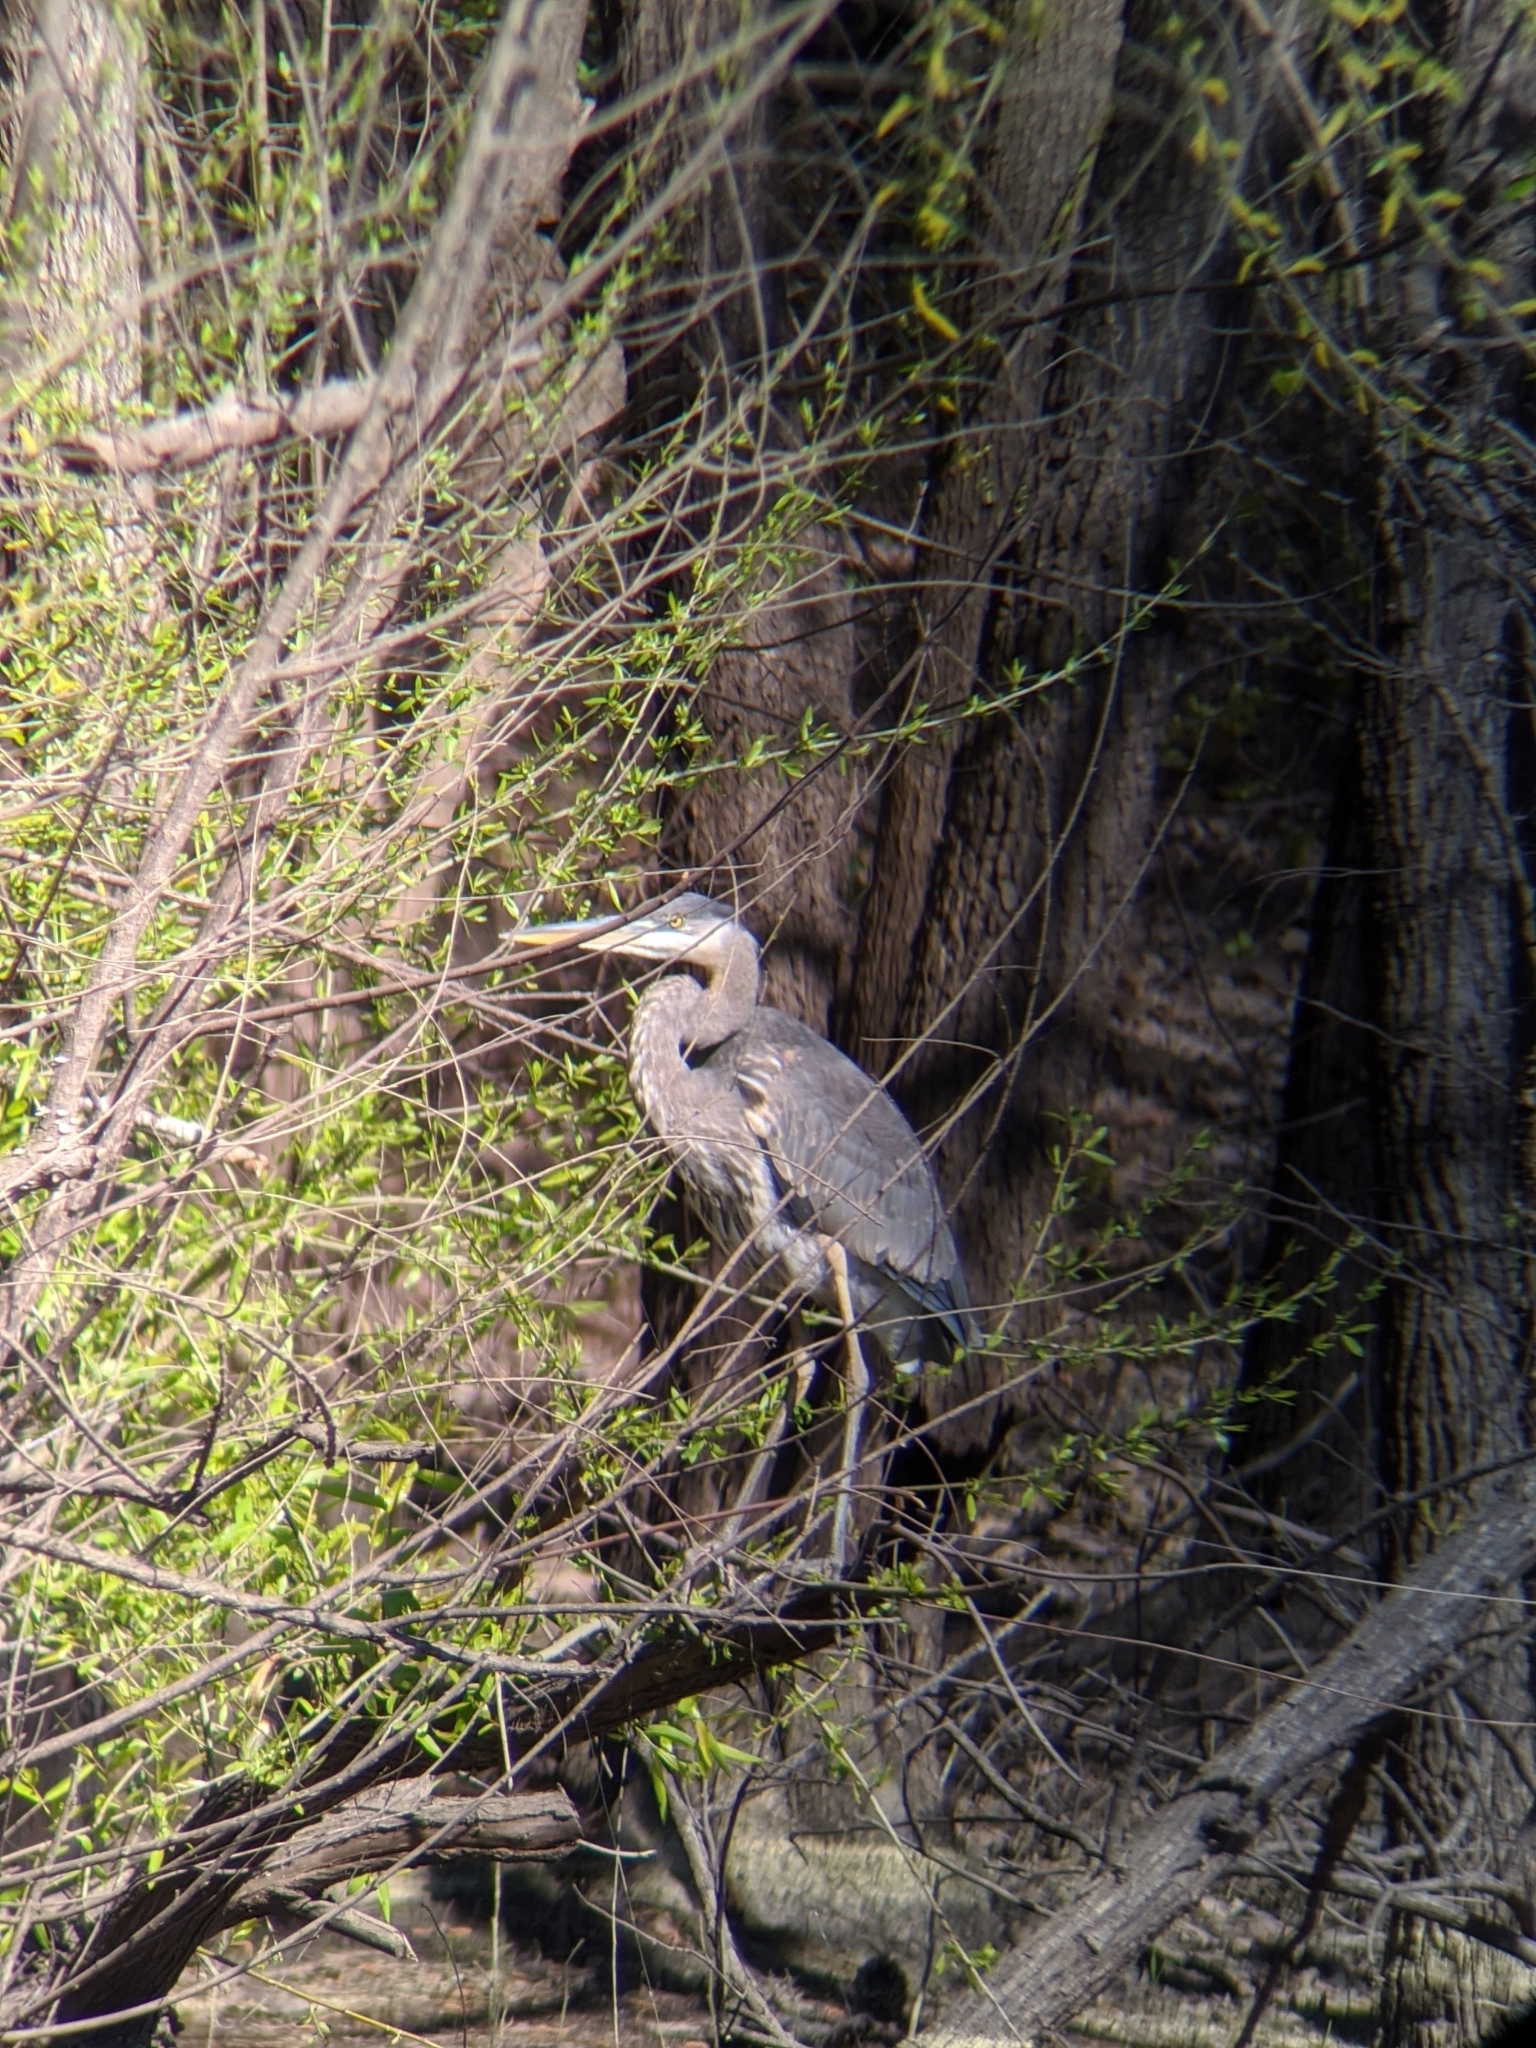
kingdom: Animalia
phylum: Chordata
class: Aves
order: Pelecaniformes
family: Ardeidae
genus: Ardea
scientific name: Ardea herodias
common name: Great blue heron
